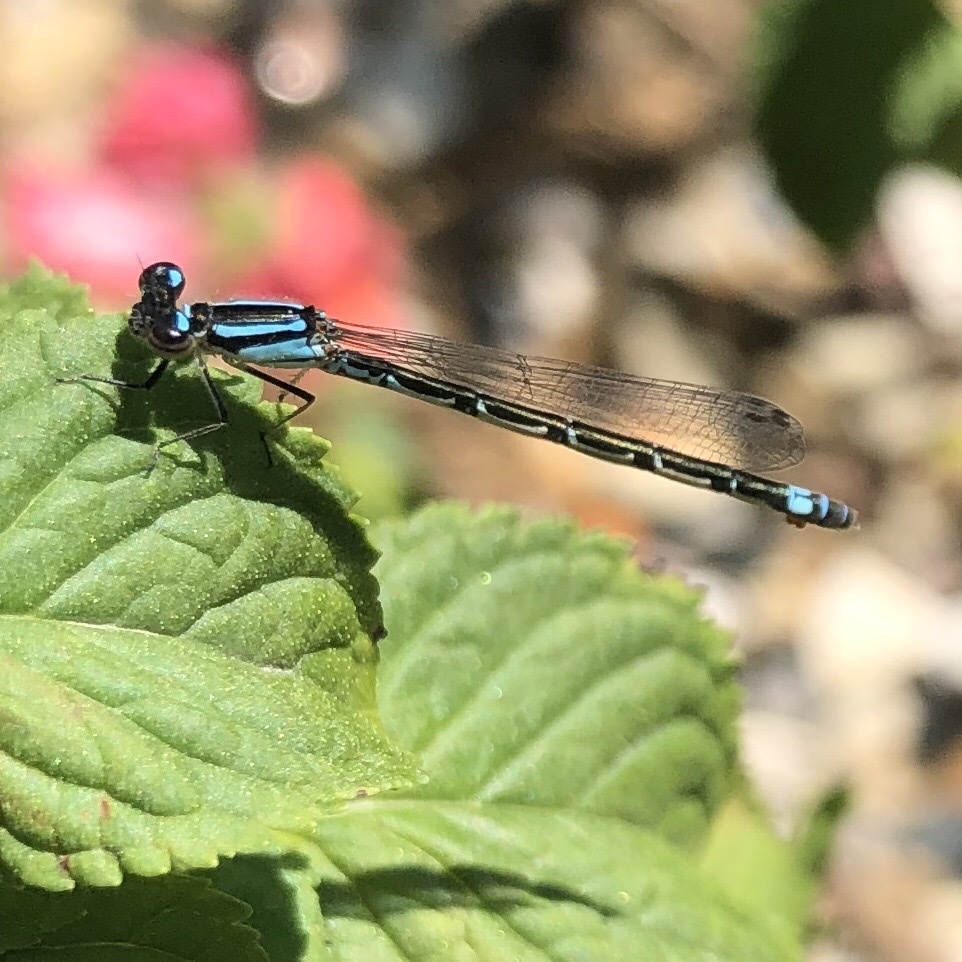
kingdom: Animalia
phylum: Arthropoda
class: Insecta
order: Odonata
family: Coenagrionidae
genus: Enallagma
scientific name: Enallagma geminatum
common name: Skimming bluet
